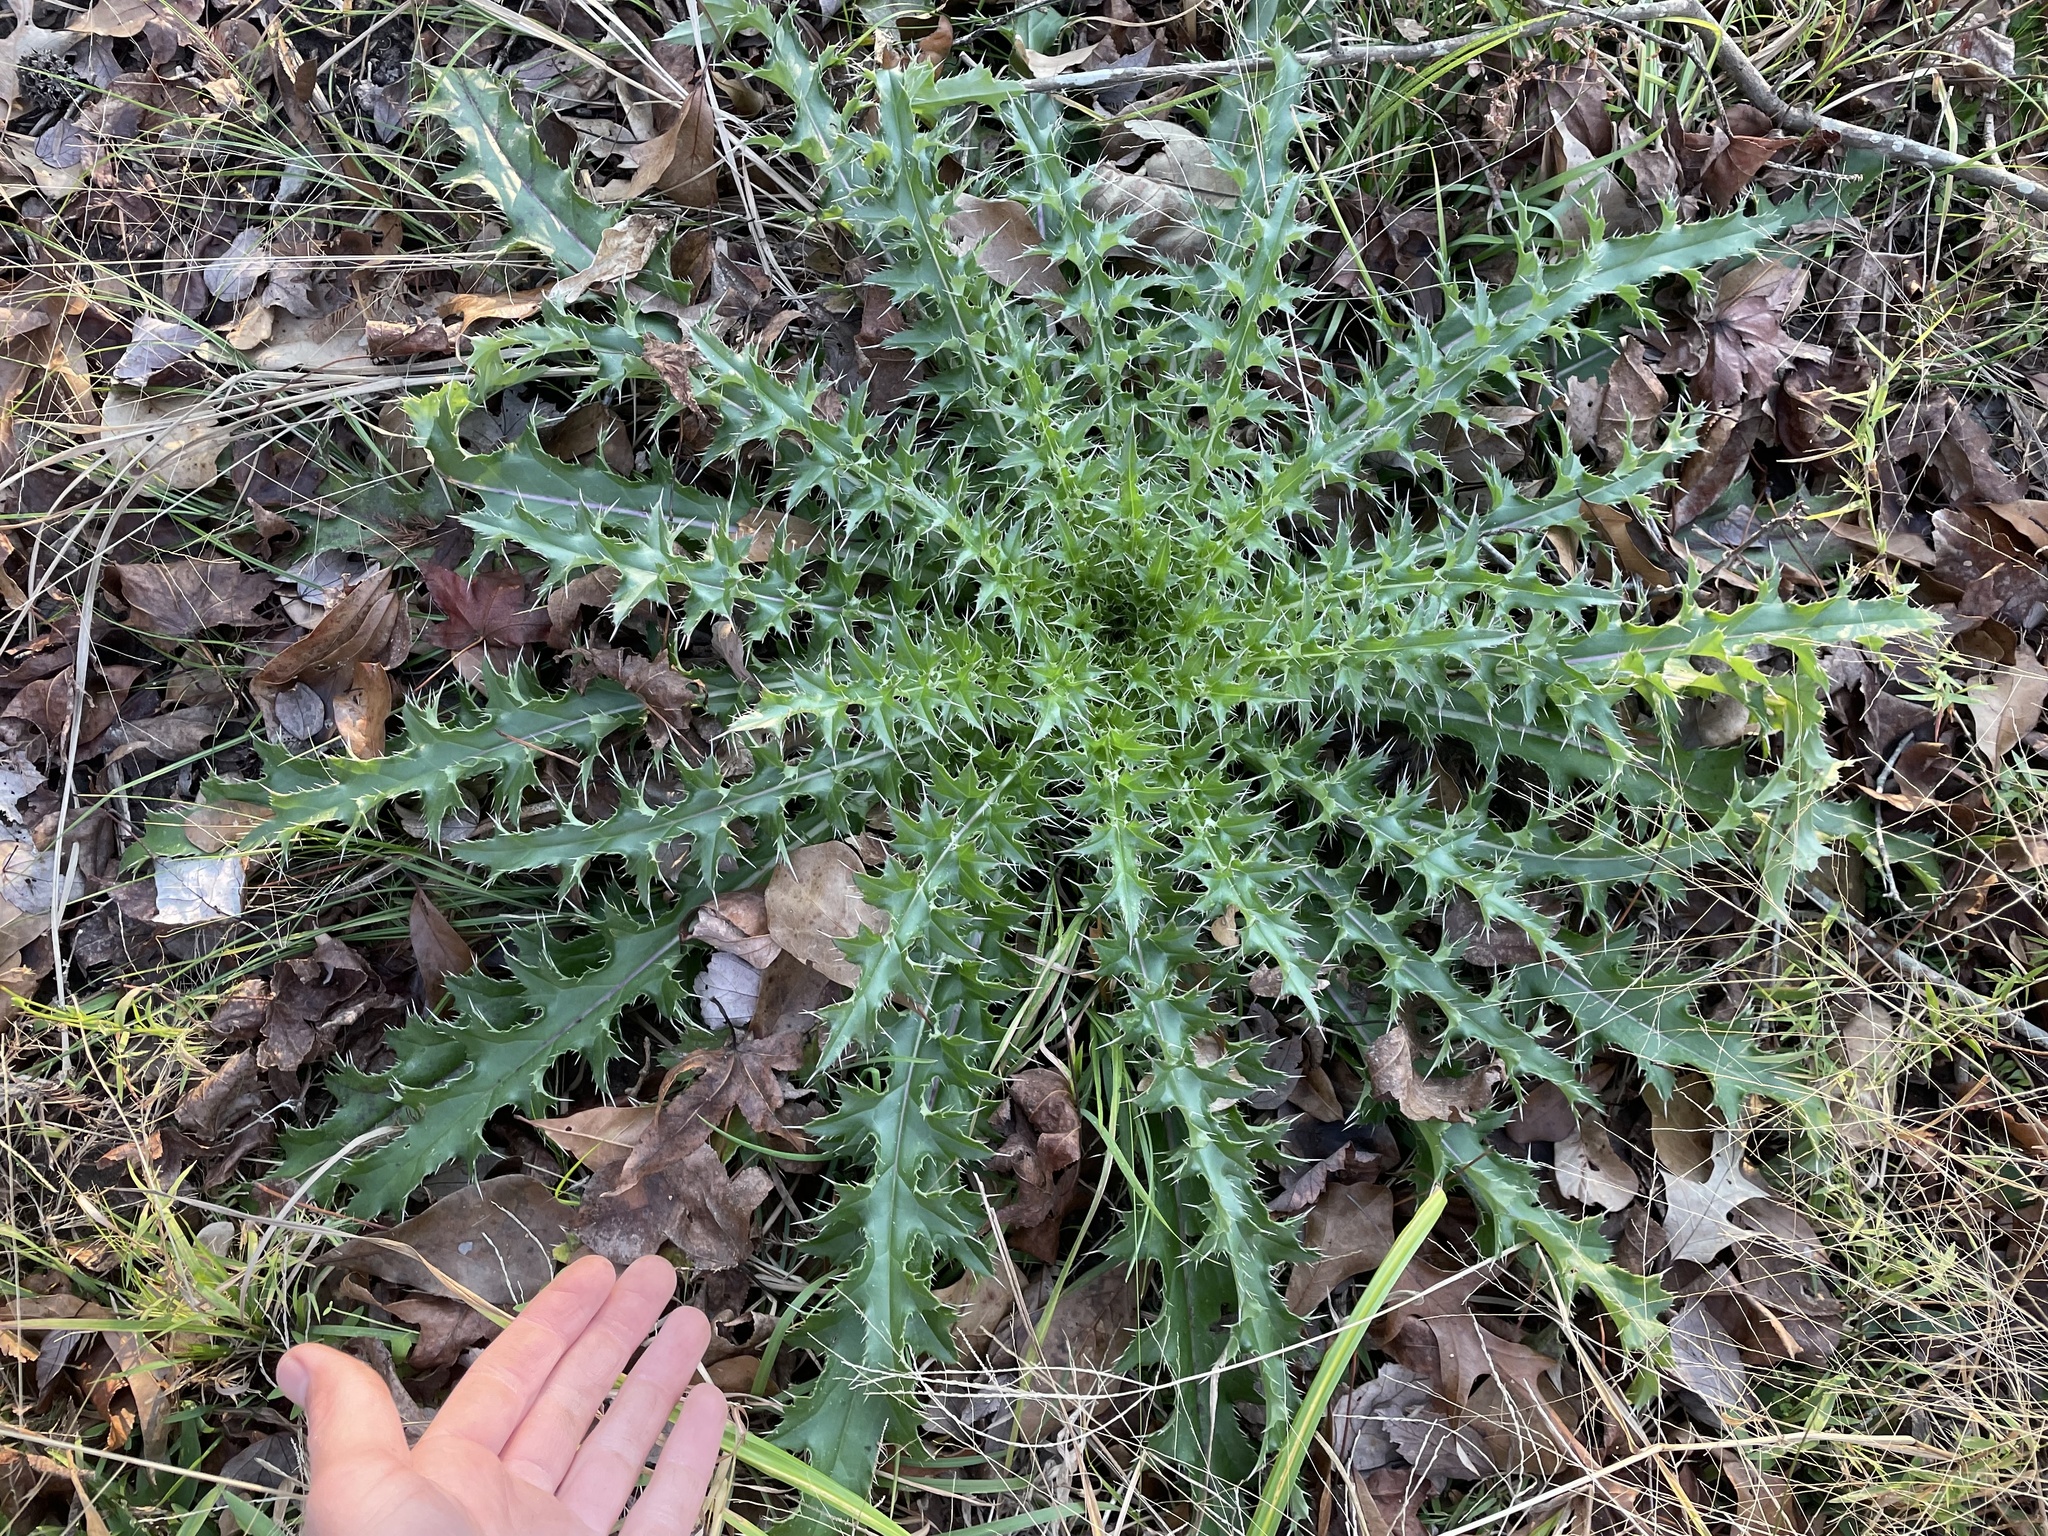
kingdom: Plantae
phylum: Tracheophyta
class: Magnoliopsida
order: Asterales
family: Asteraceae
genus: Cirsium
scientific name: Cirsium horridulum
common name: Bristly thistle
